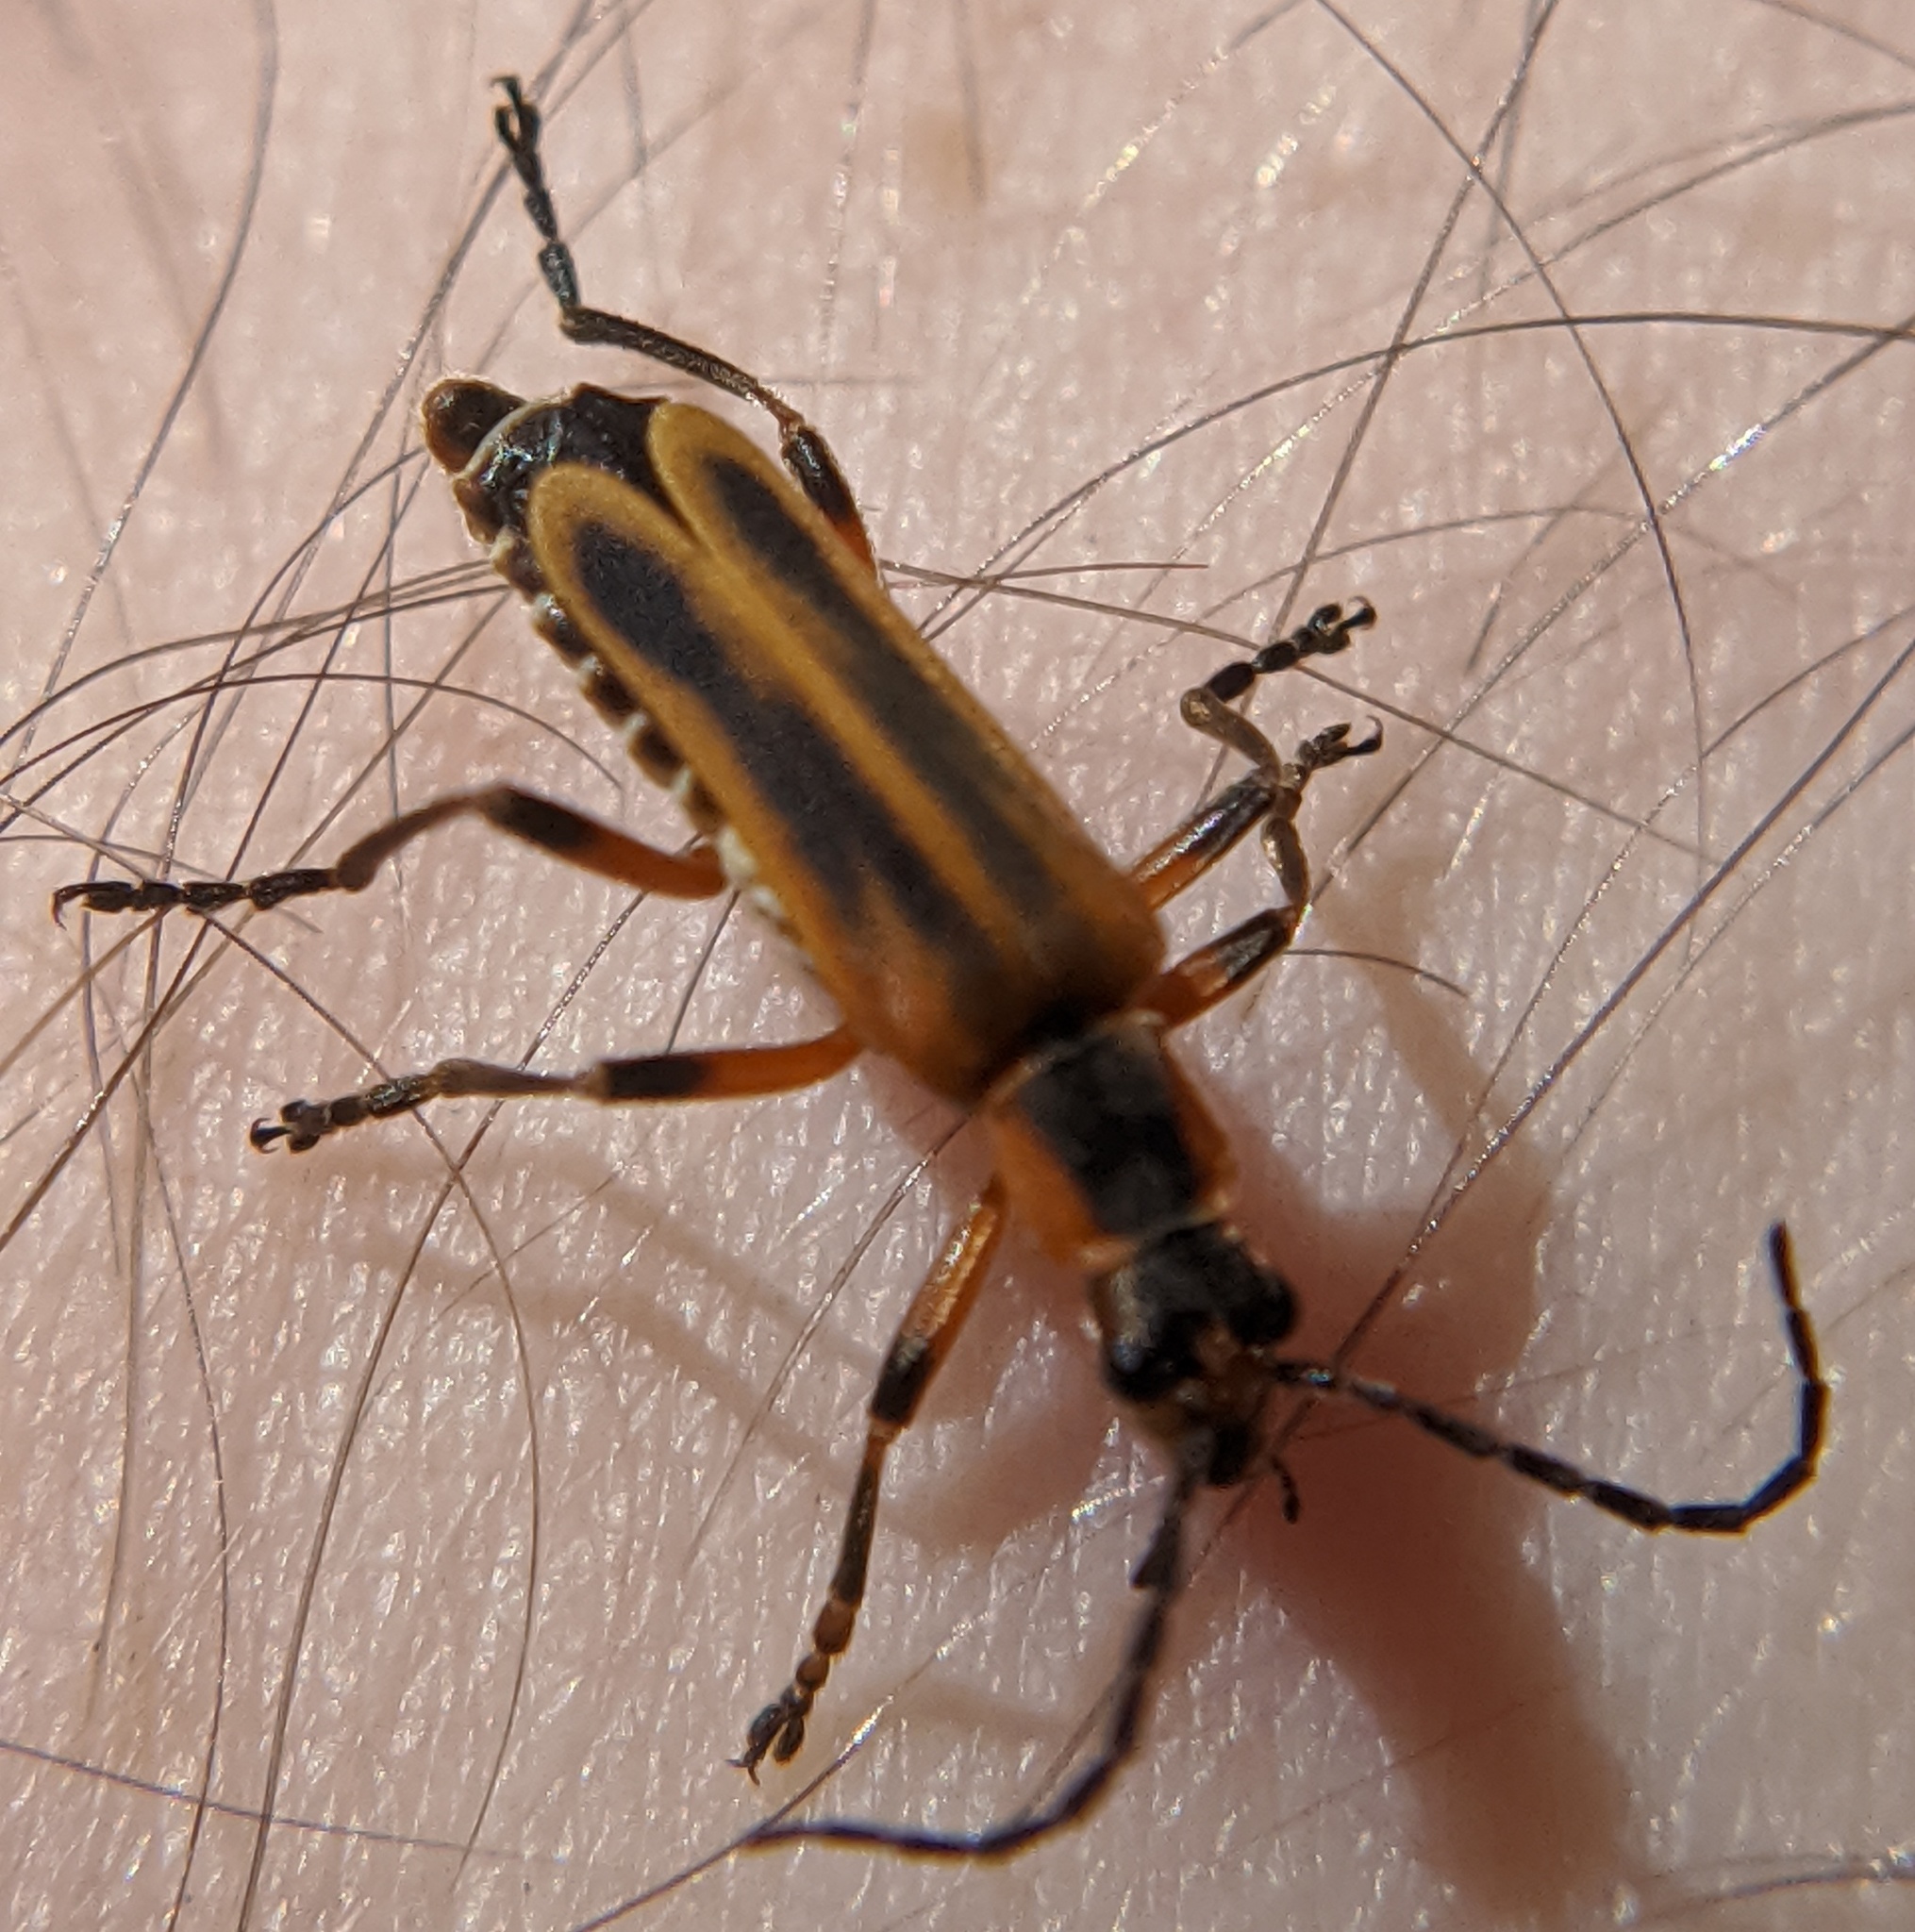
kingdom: Animalia
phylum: Arthropoda
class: Insecta
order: Coleoptera
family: Cantharidae
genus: Chauliognathus
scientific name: Chauliognathus marginatus
